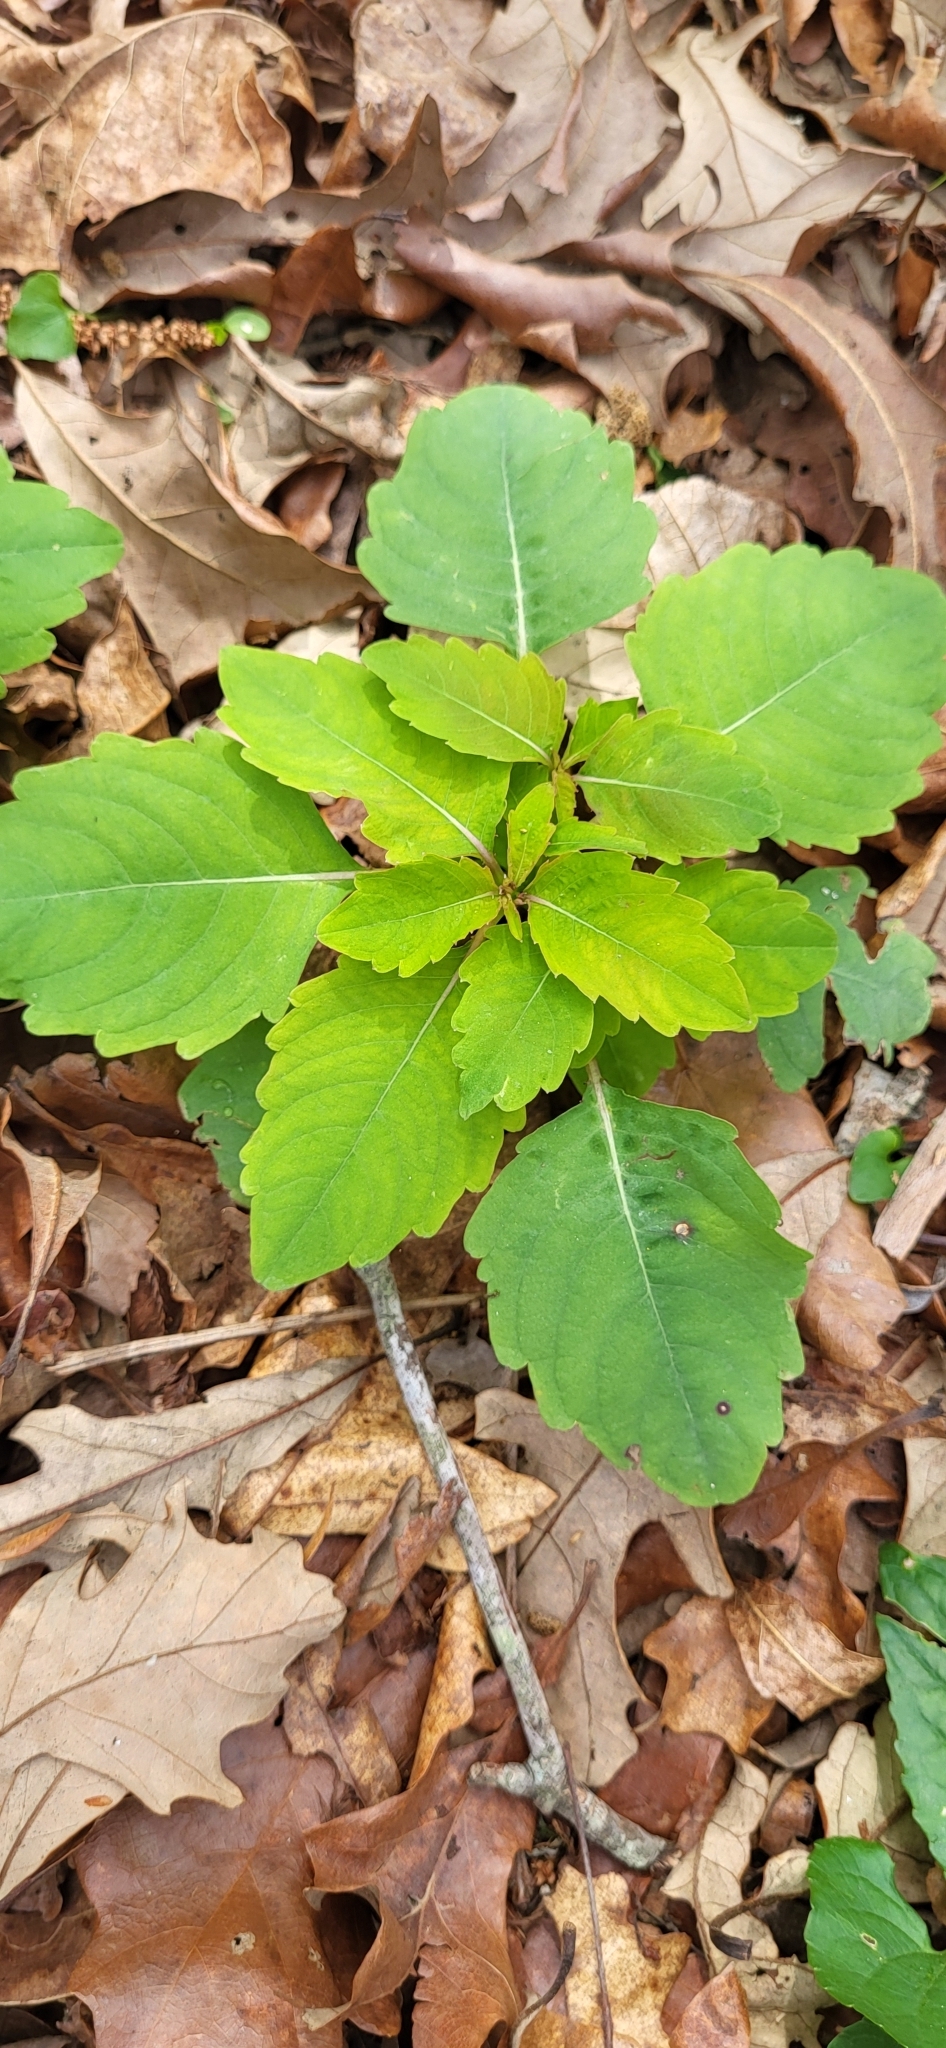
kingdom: Plantae
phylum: Tracheophyta
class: Magnoliopsida
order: Ericales
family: Balsaminaceae
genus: Impatiens
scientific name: Impatiens capensis
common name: Orange balsam
